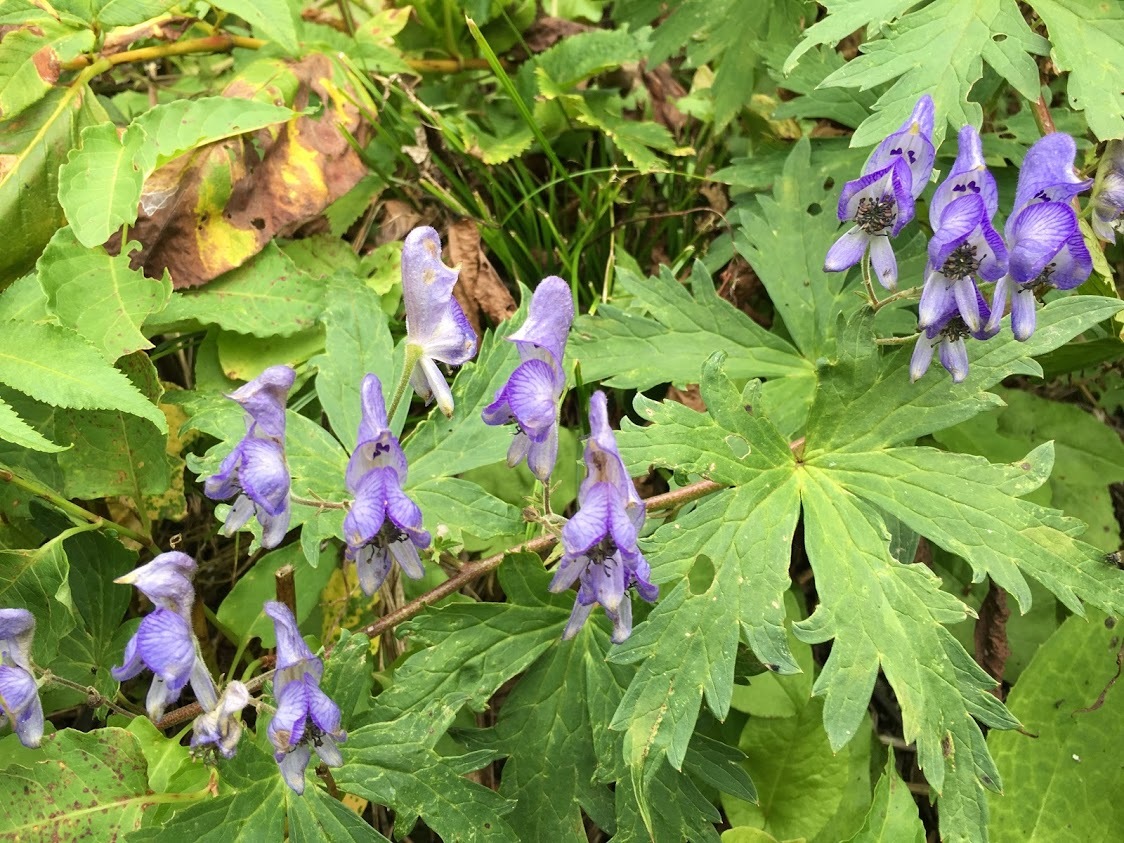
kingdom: Plantae
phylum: Tracheophyta
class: Magnoliopsida
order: Ranunculales
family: Ranunculaceae
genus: Aconitum
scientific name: Aconitum japonicum
